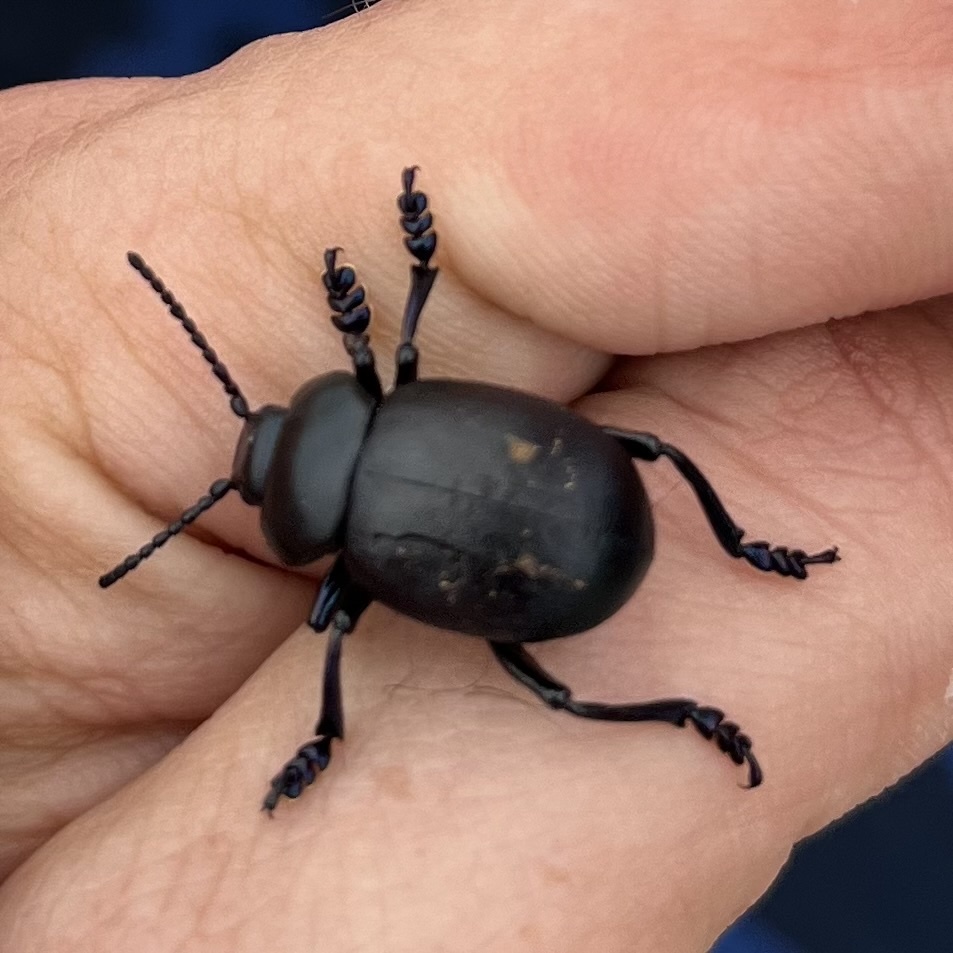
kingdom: Animalia
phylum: Arthropoda
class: Insecta
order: Coleoptera
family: Chrysomelidae
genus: Timarcha
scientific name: Timarcha tenebricosa
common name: Bloody-nosed beetle
